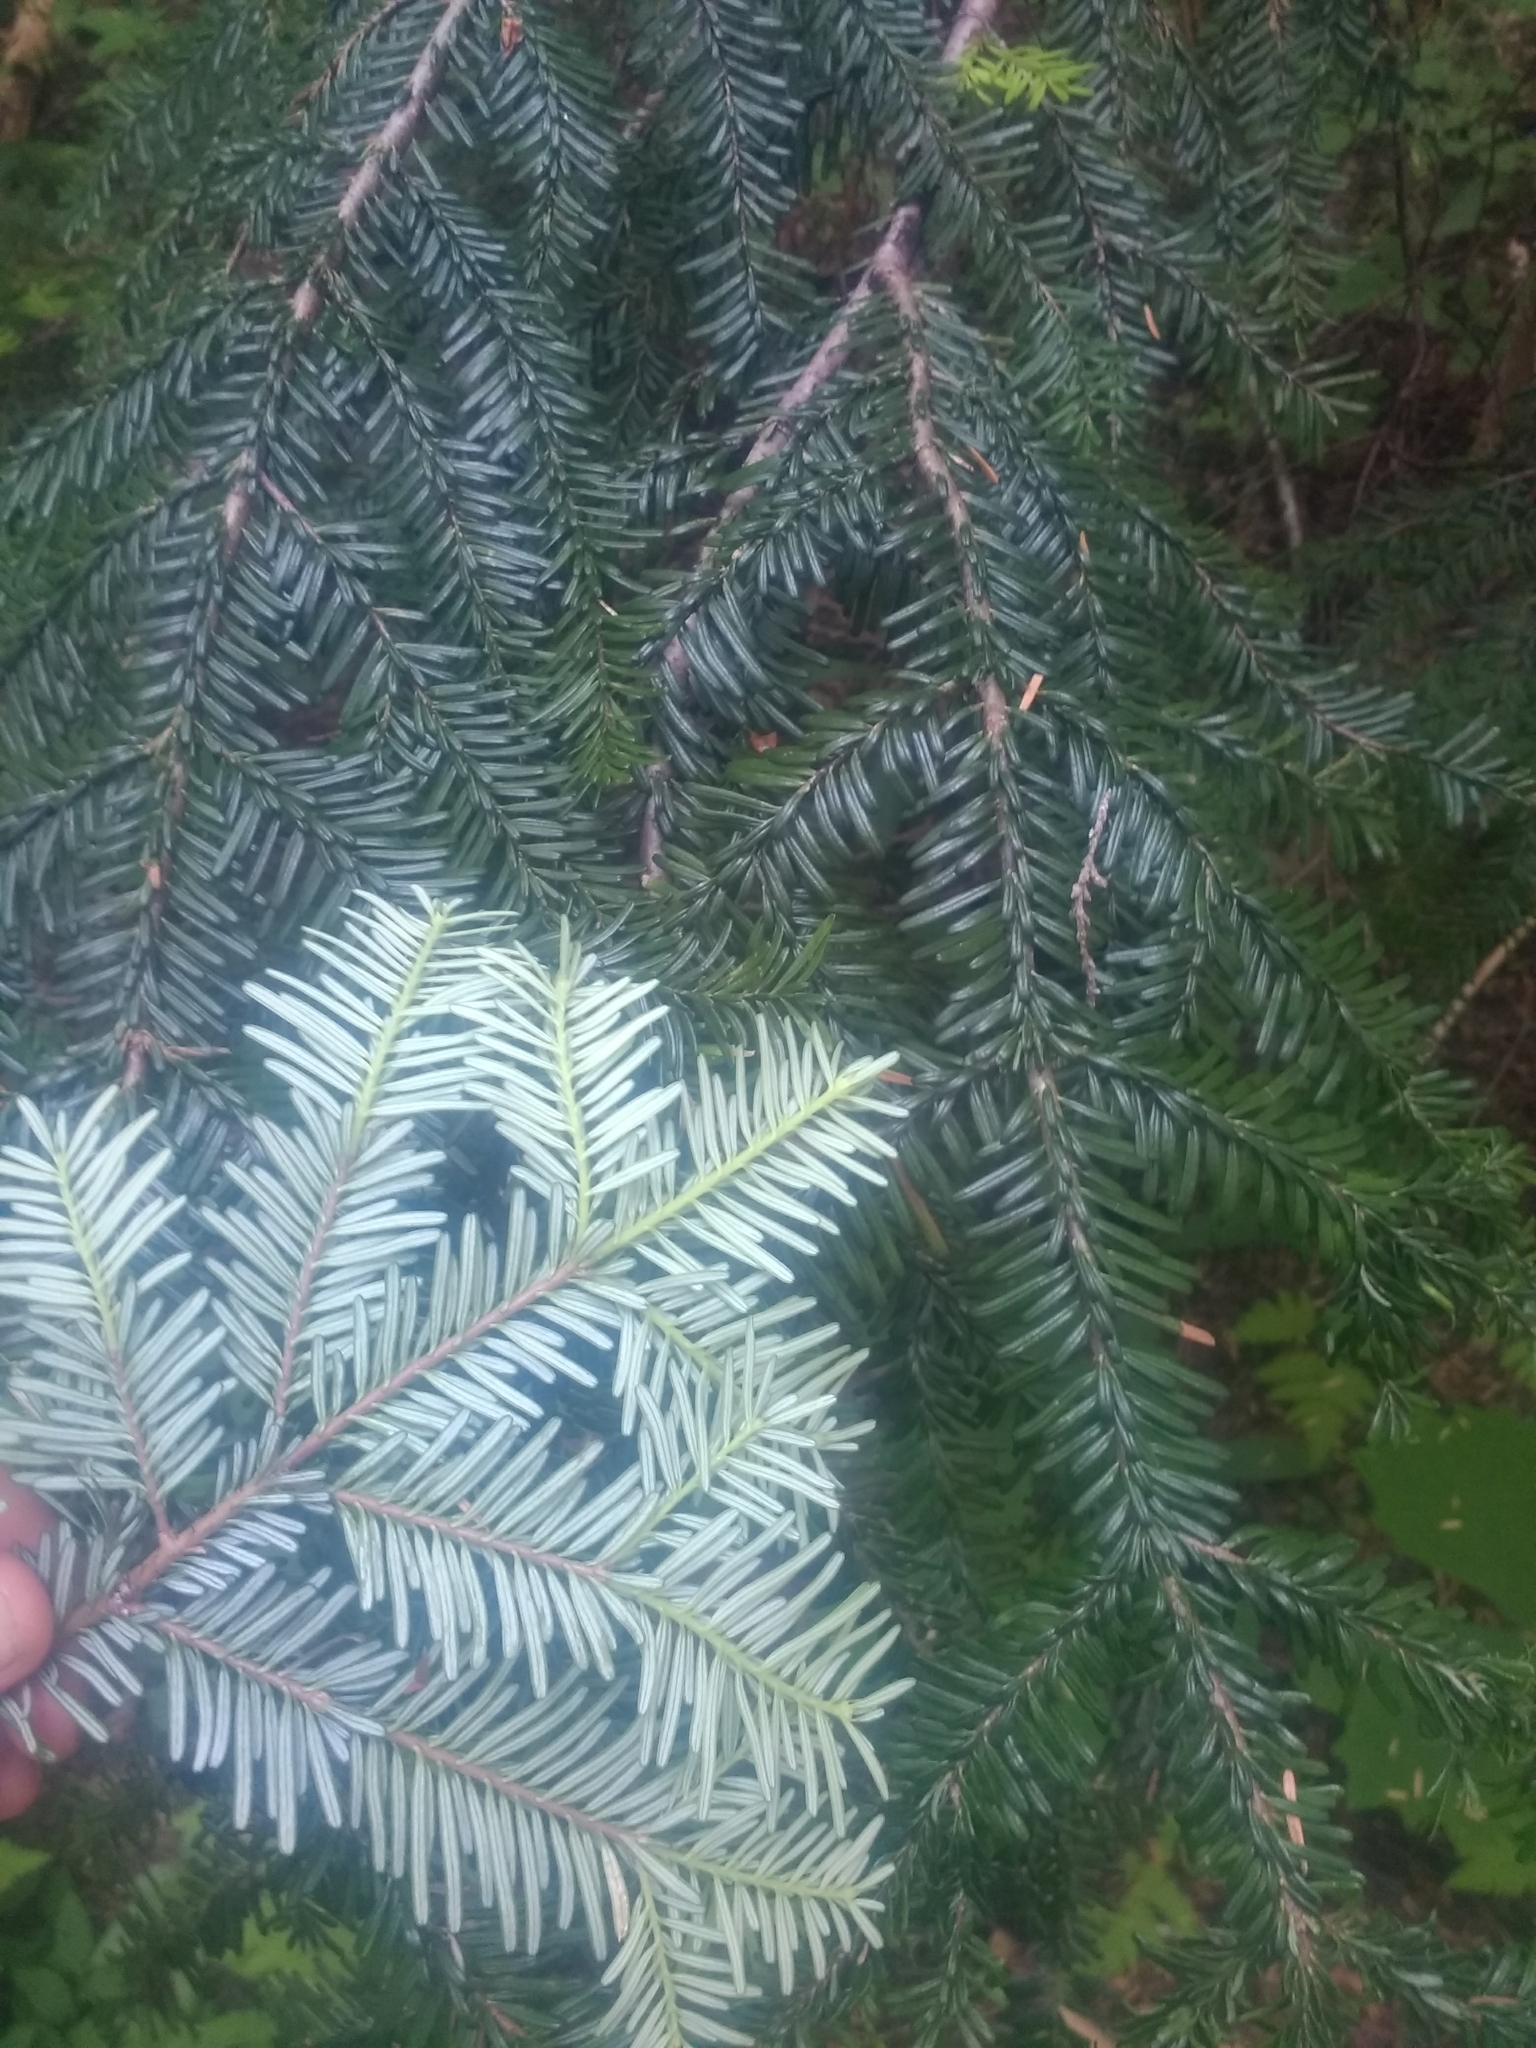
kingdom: Plantae
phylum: Tracheophyta
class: Pinopsida
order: Pinales
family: Pinaceae
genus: Abies
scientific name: Abies amabilis
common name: Pacific silver fir
